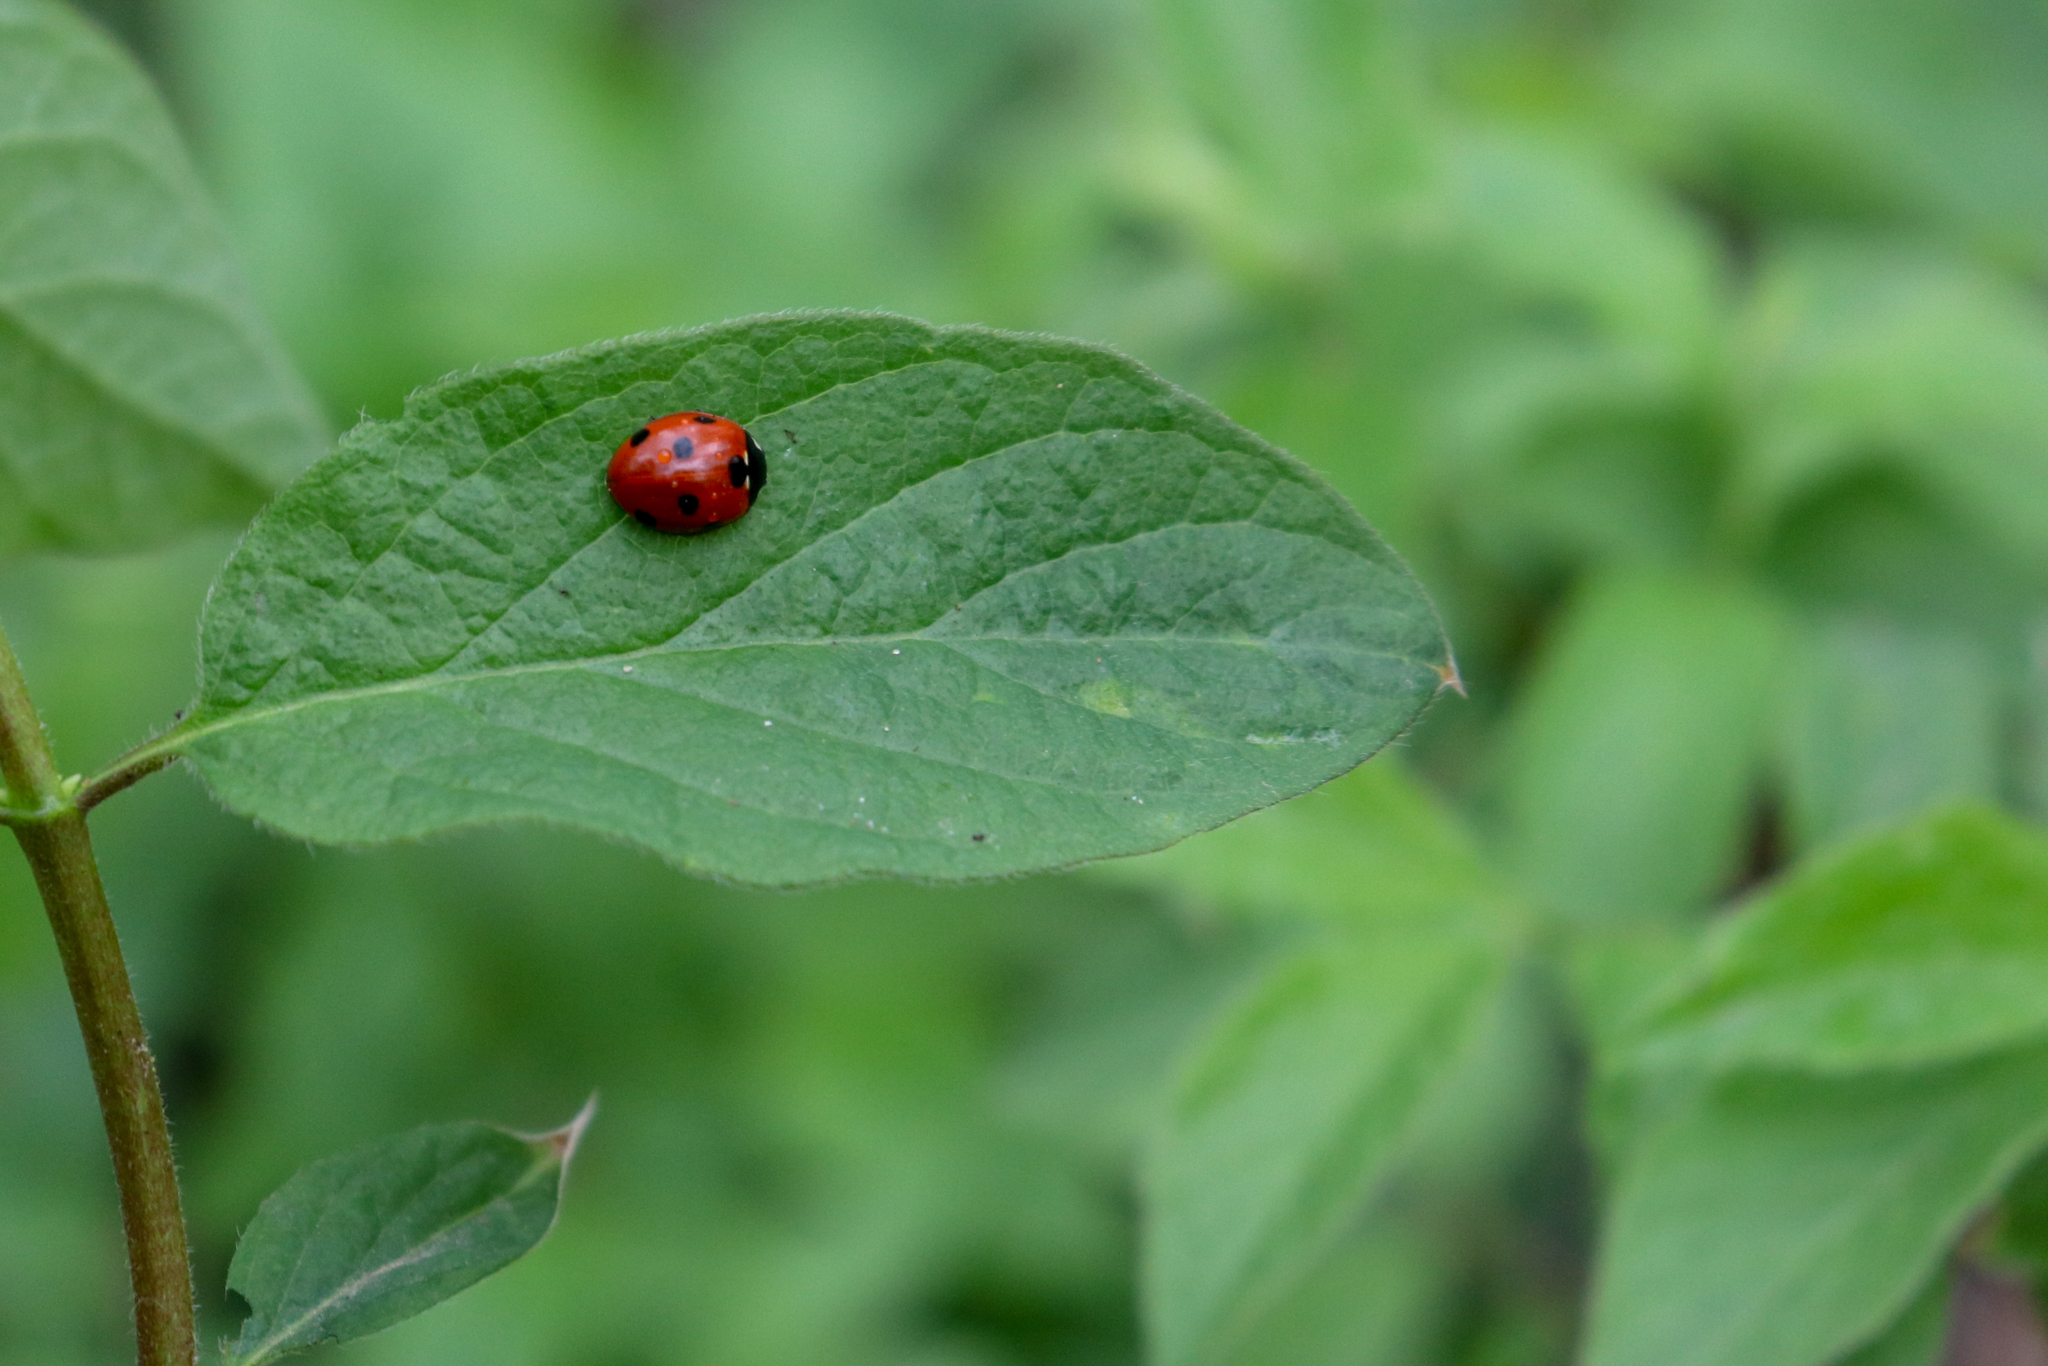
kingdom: Animalia
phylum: Arthropoda
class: Insecta
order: Coleoptera
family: Coccinellidae
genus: Coccinella
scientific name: Coccinella septempunctata
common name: Sevenspotted lady beetle
